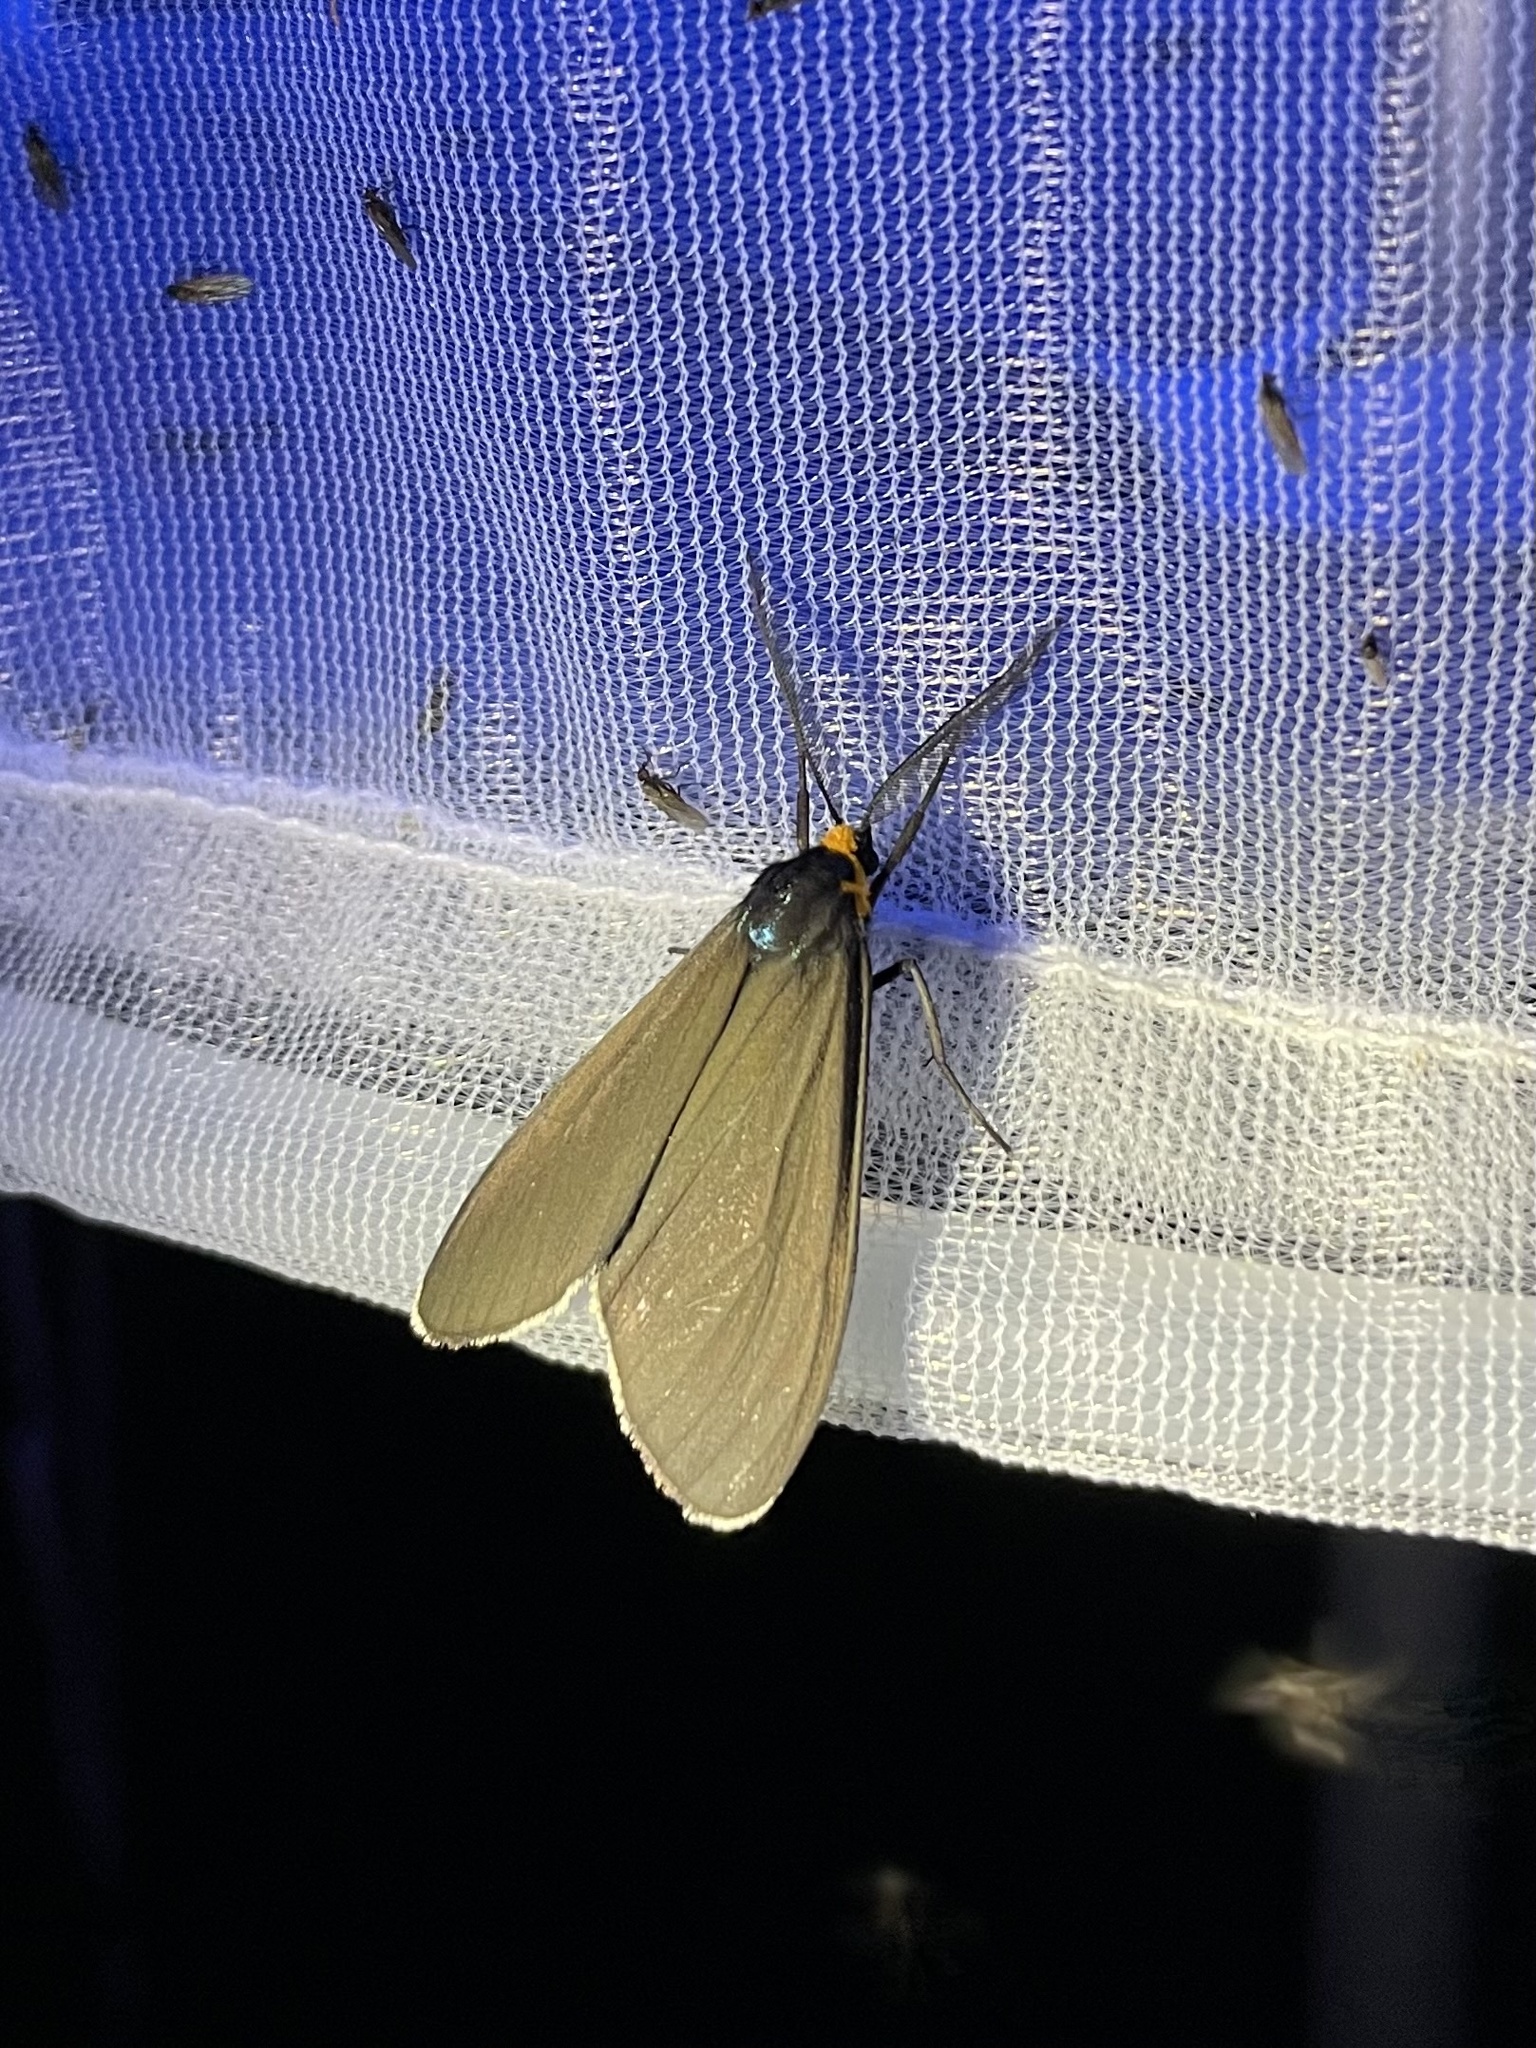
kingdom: Animalia
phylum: Arthropoda
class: Insecta
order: Lepidoptera
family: Erebidae
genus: Ctenucha
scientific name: Ctenucha virginica
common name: Virginia ctenucha moth
